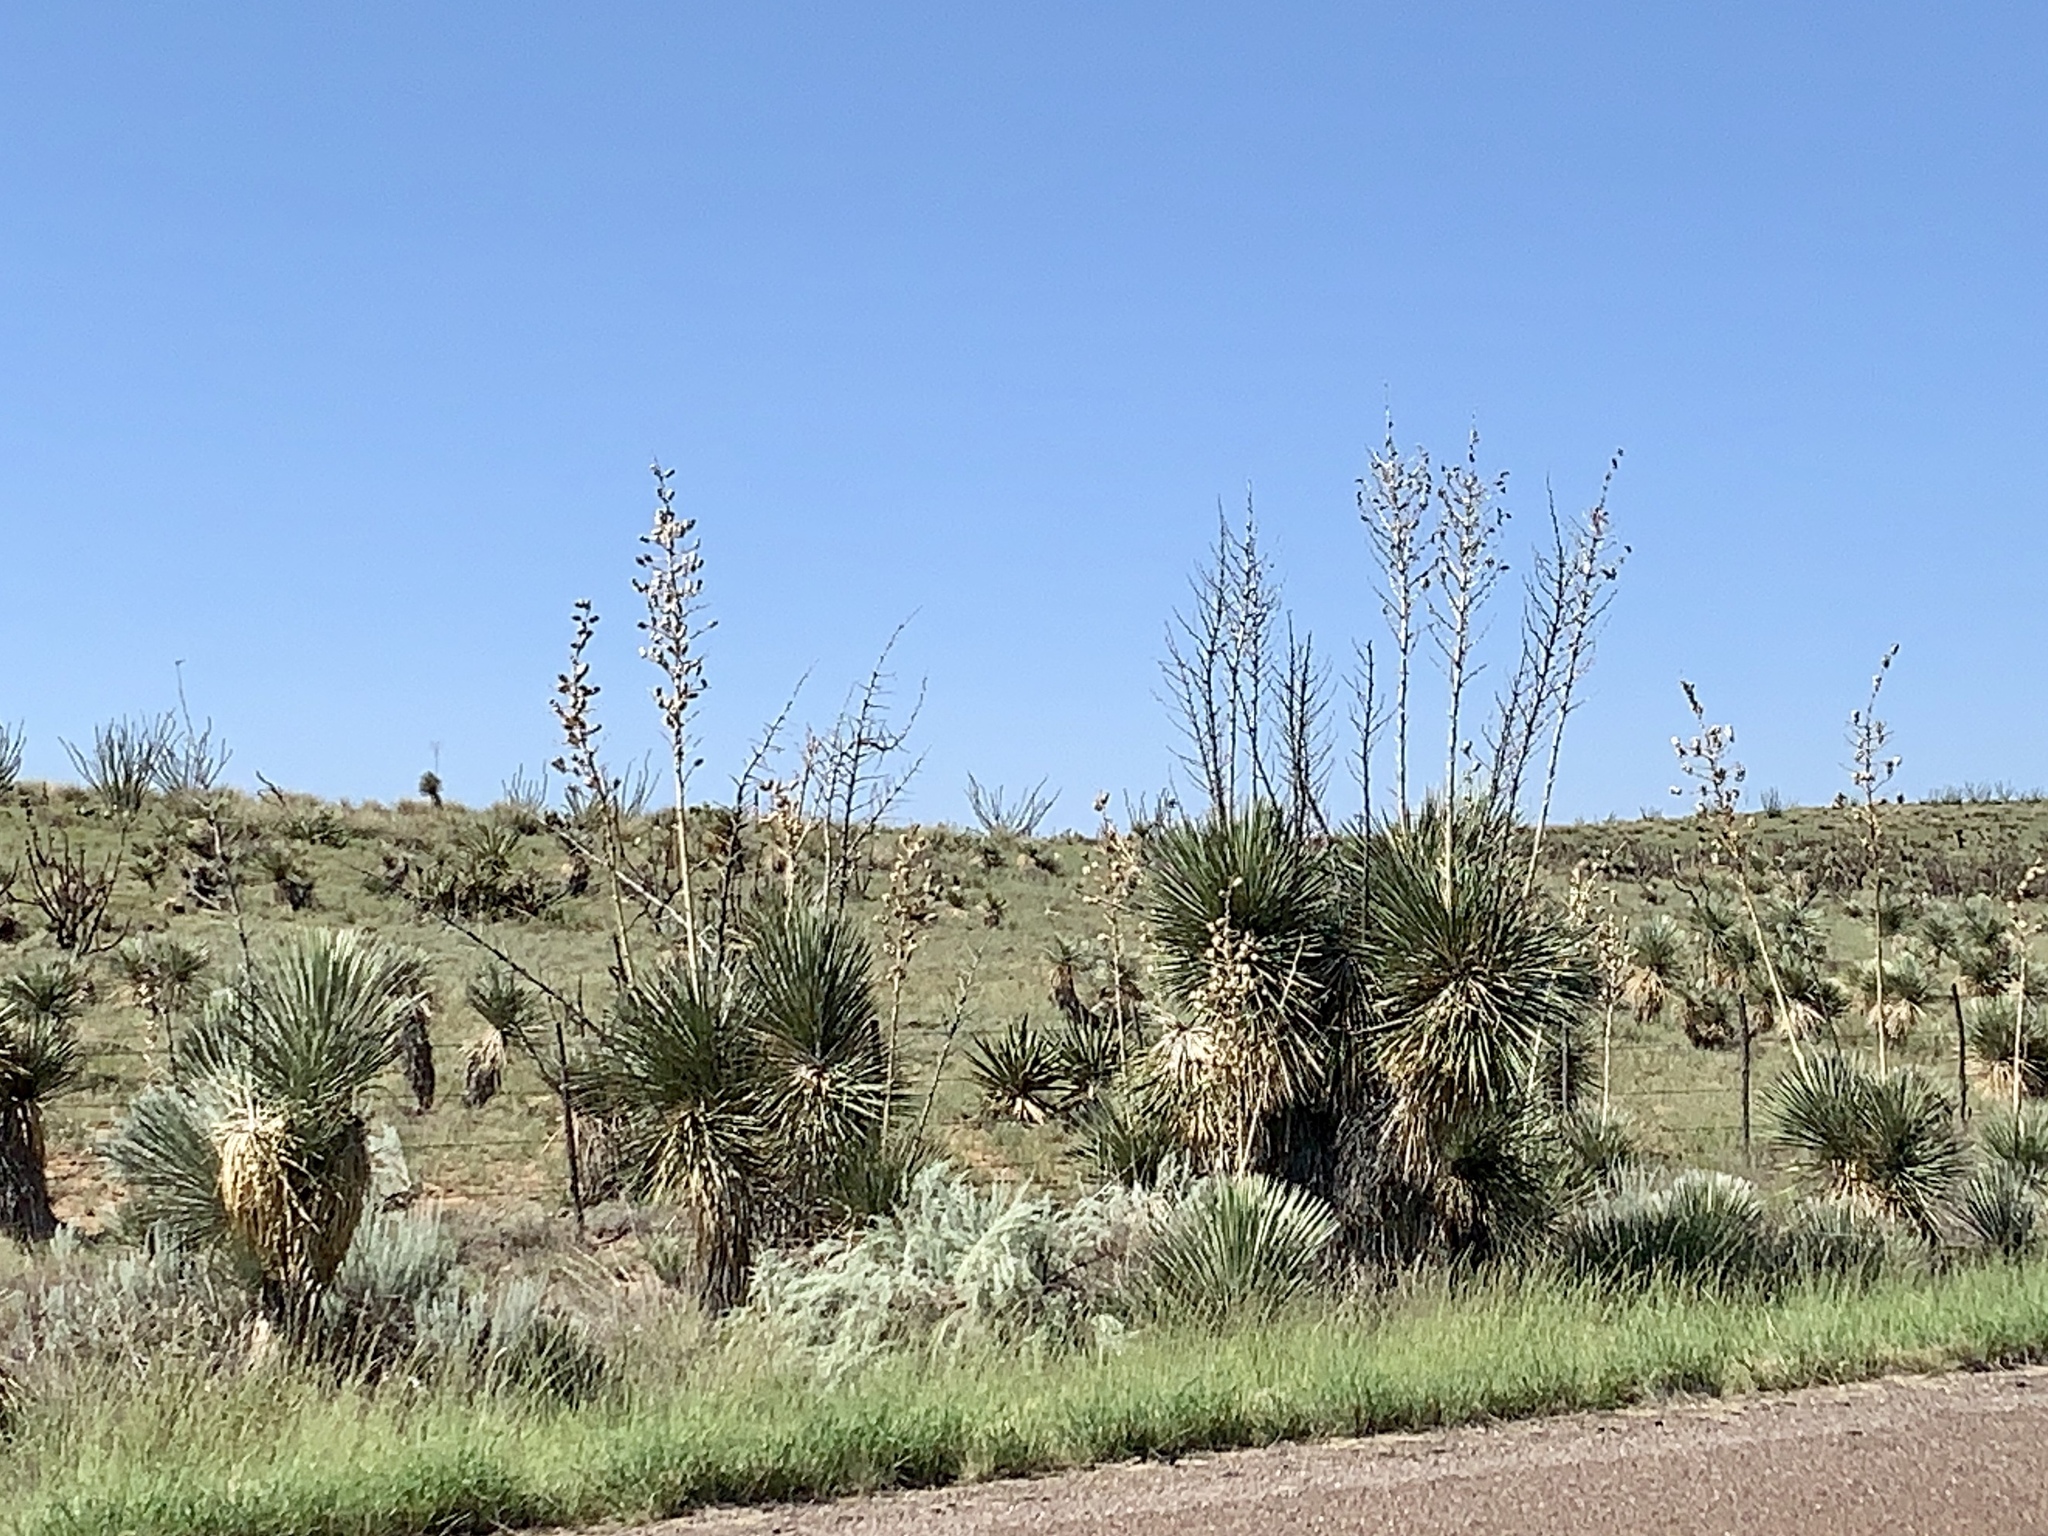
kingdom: Plantae
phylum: Tracheophyta
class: Liliopsida
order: Asparagales
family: Asparagaceae
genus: Yucca
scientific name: Yucca elata
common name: Palmella
